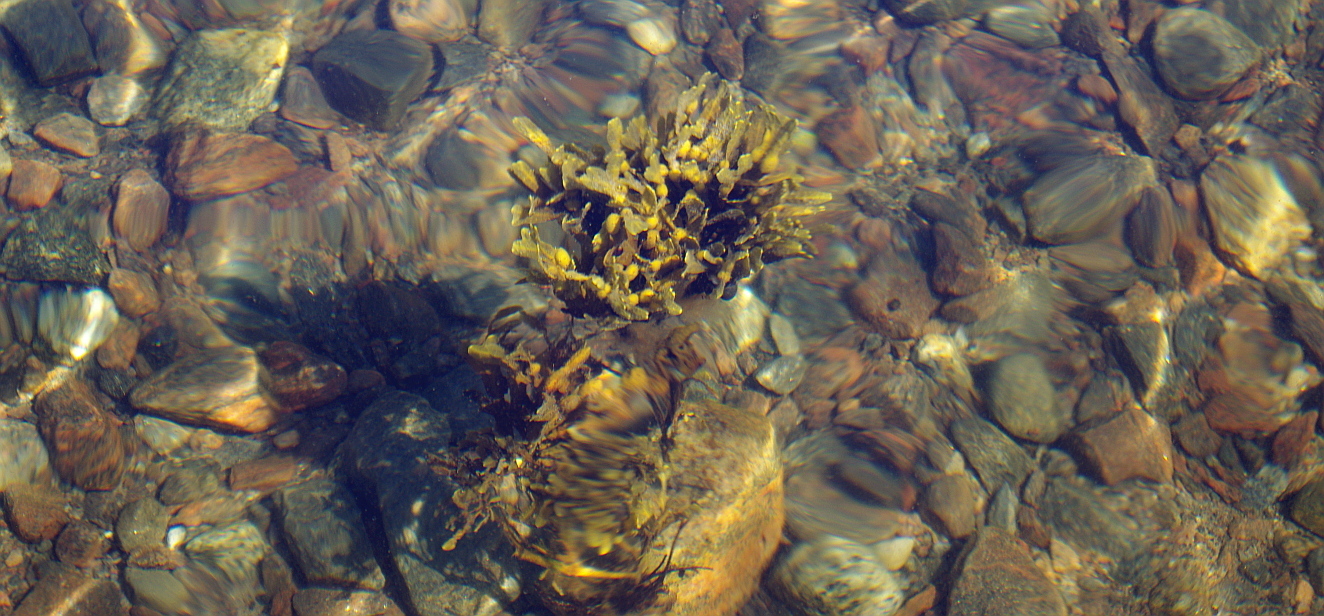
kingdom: Chromista
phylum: Ochrophyta
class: Phaeophyceae
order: Fucales
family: Fucaceae
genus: Fucus
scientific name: Fucus vesiculosus
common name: Bladder wrack
